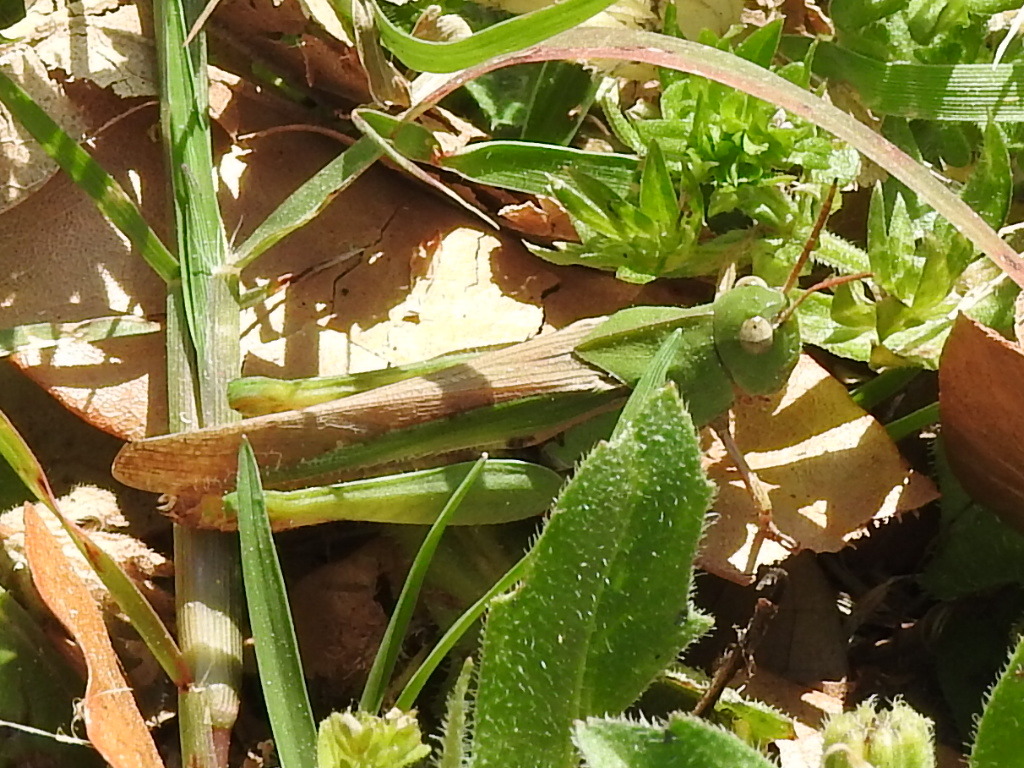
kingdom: Animalia
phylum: Arthropoda
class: Insecta
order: Orthoptera
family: Acrididae
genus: Chortophaga
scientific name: Chortophaga viridifasciata
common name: Green-striped grasshopper
